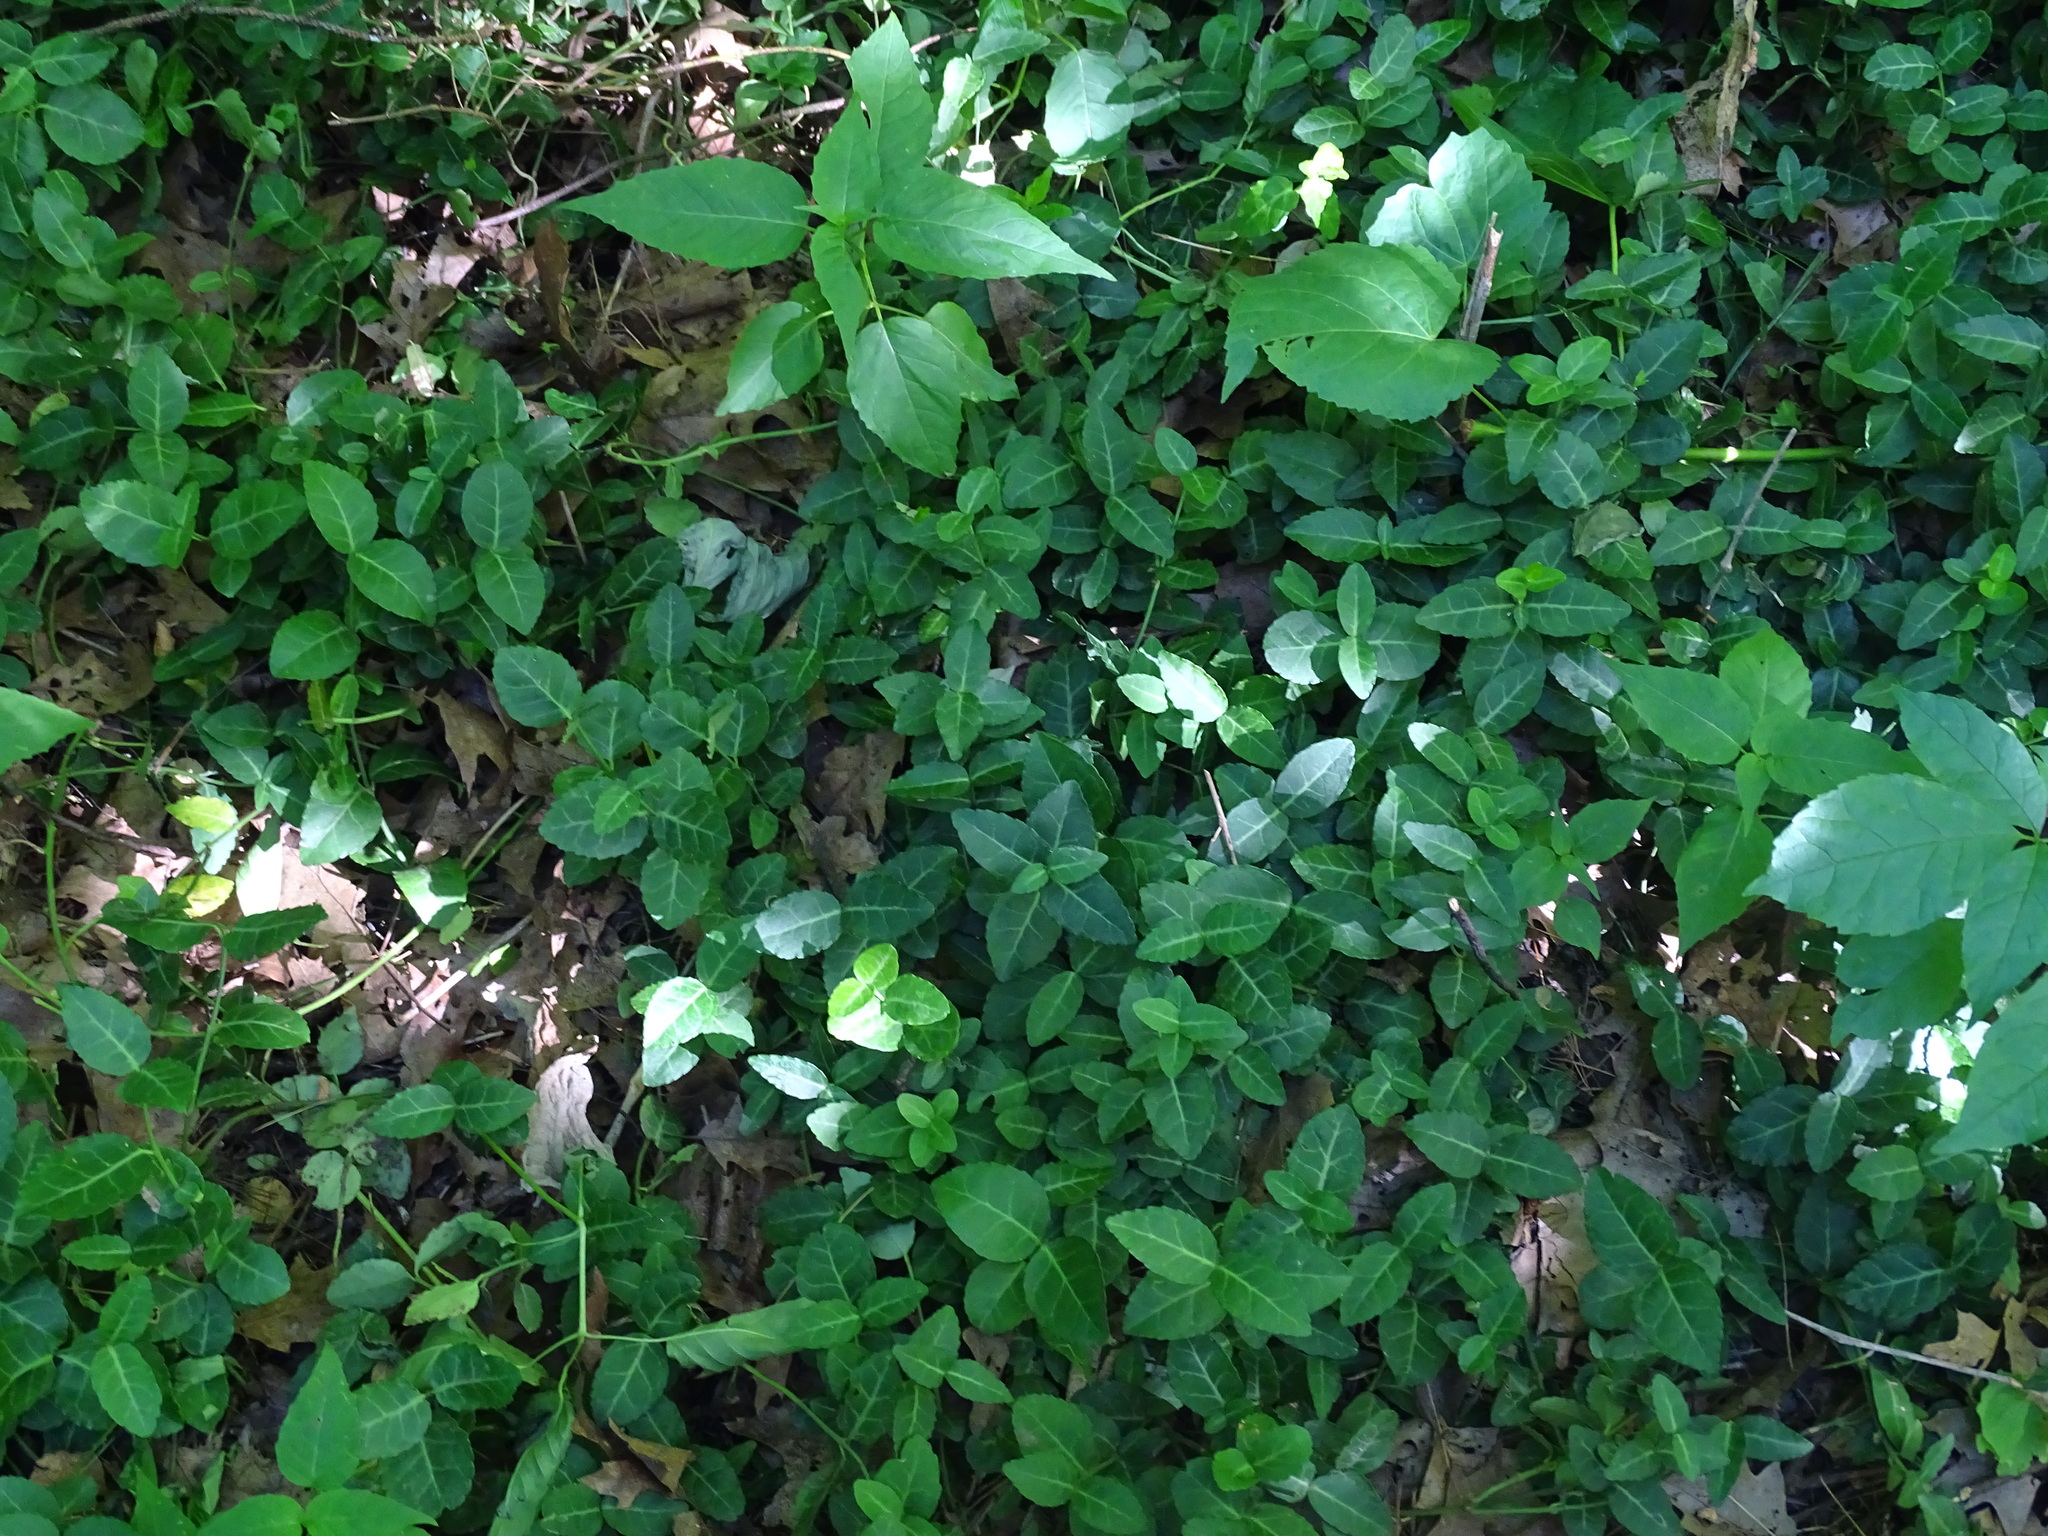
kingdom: Plantae
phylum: Tracheophyta
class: Magnoliopsida
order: Celastrales
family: Celastraceae
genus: Euonymus
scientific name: Euonymus fortunei
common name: Climbing euonymus
